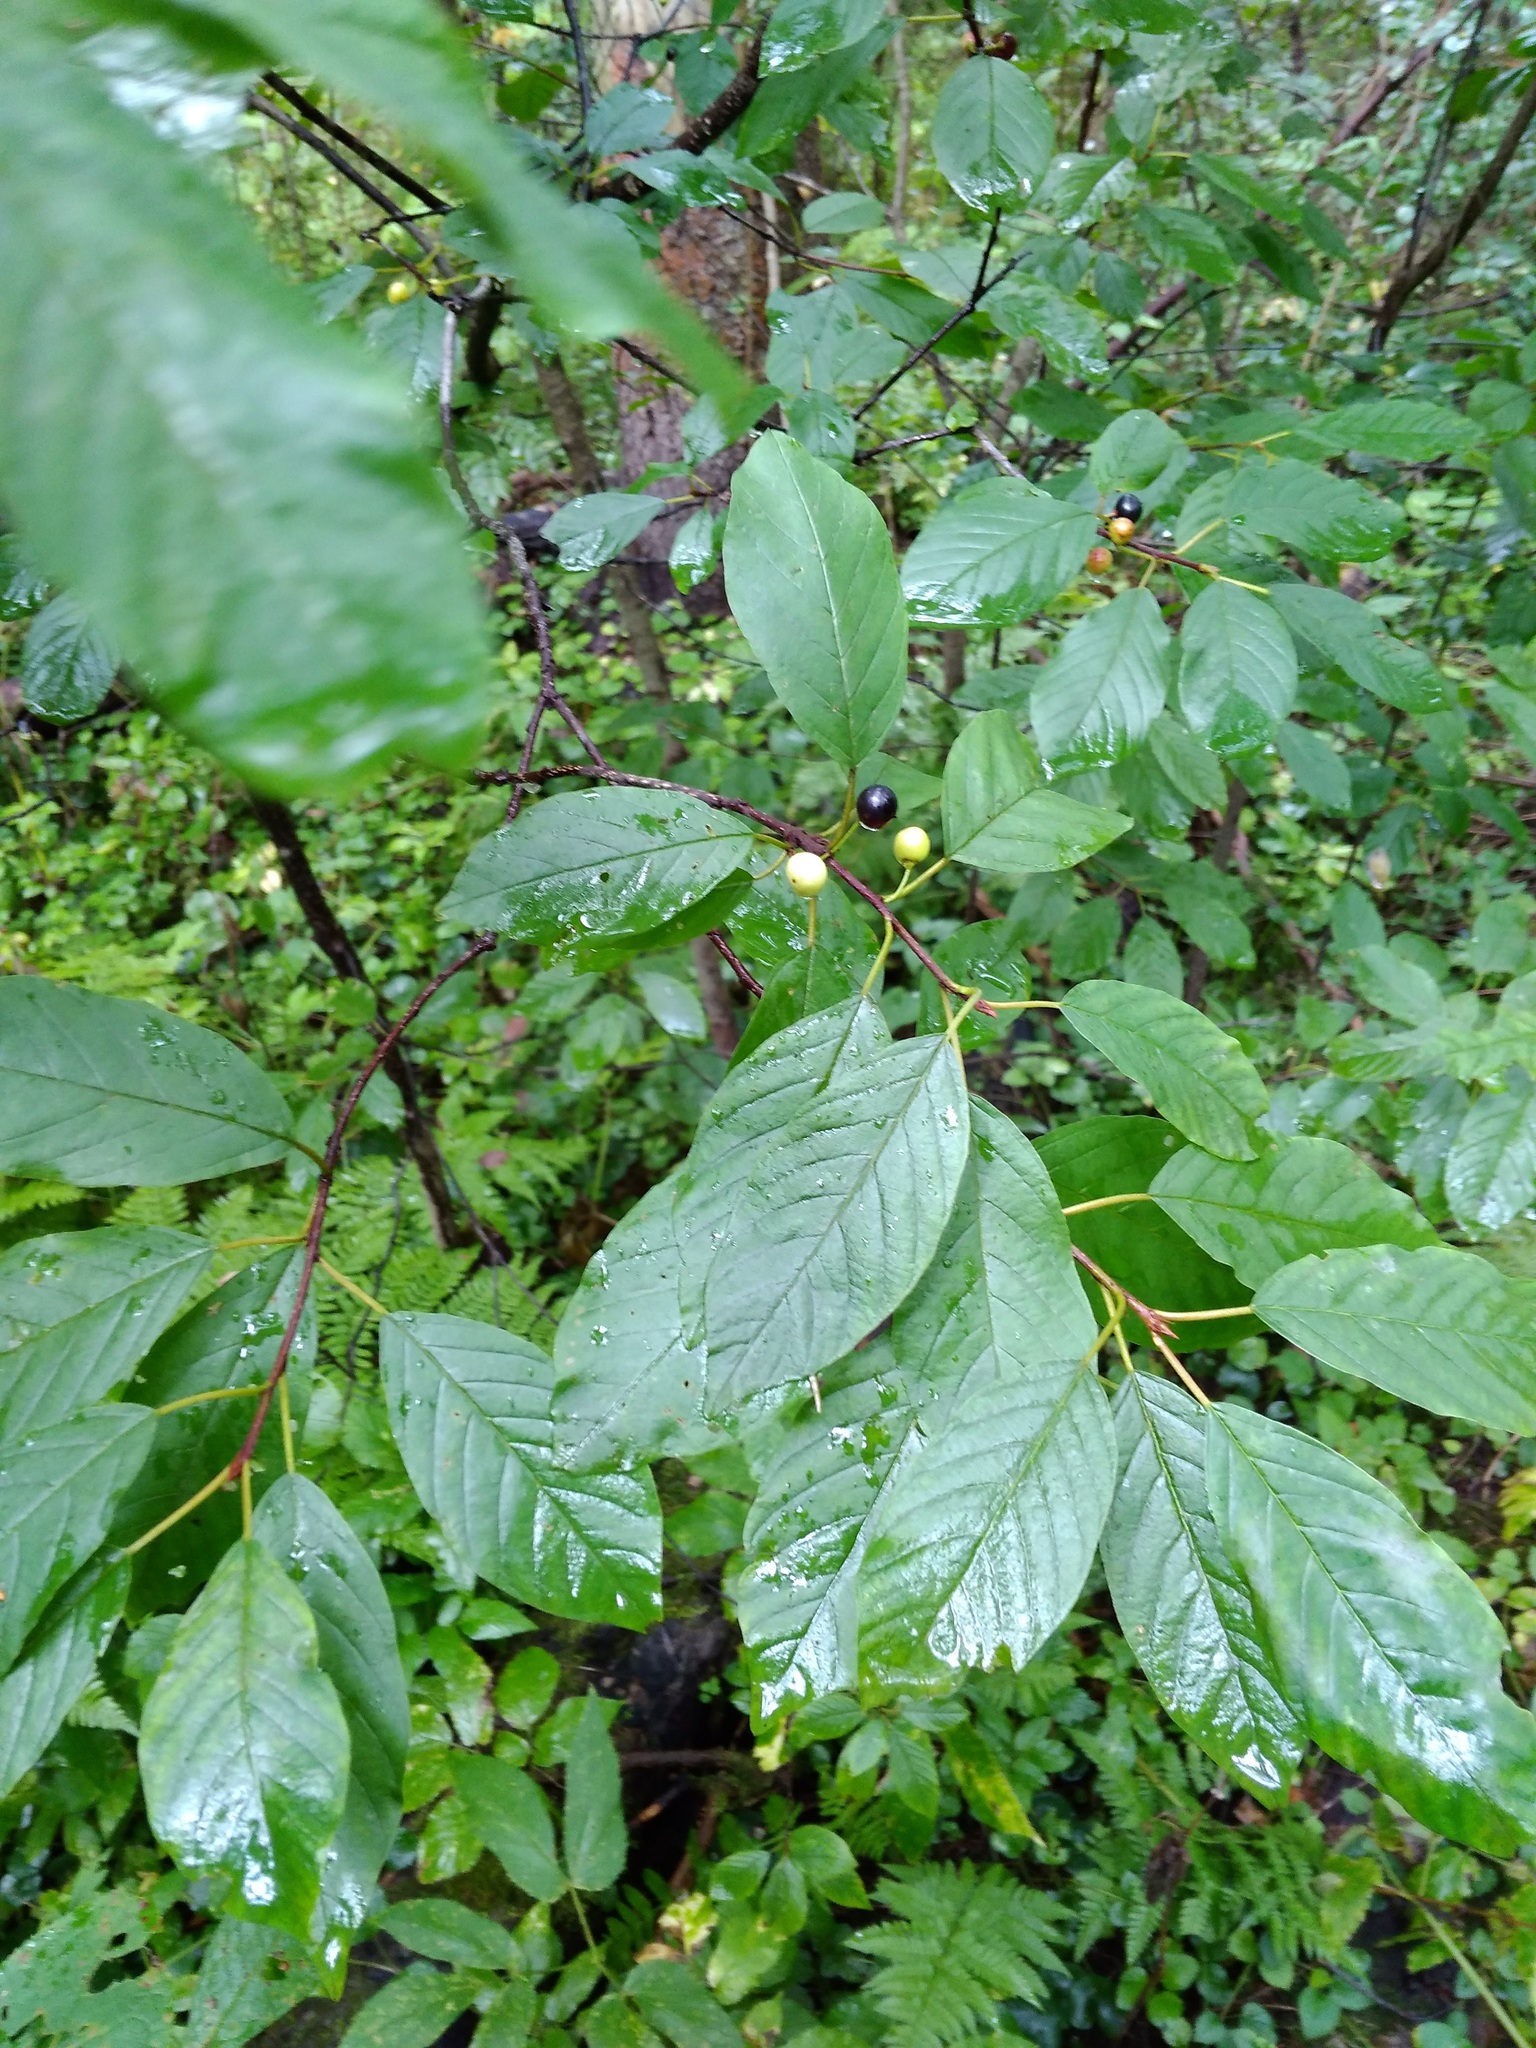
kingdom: Plantae
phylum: Tracheophyta
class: Magnoliopsida
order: Rosales
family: Rhamnaceae
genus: Frangula
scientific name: Frangula alnus
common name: Alder buckthorn
